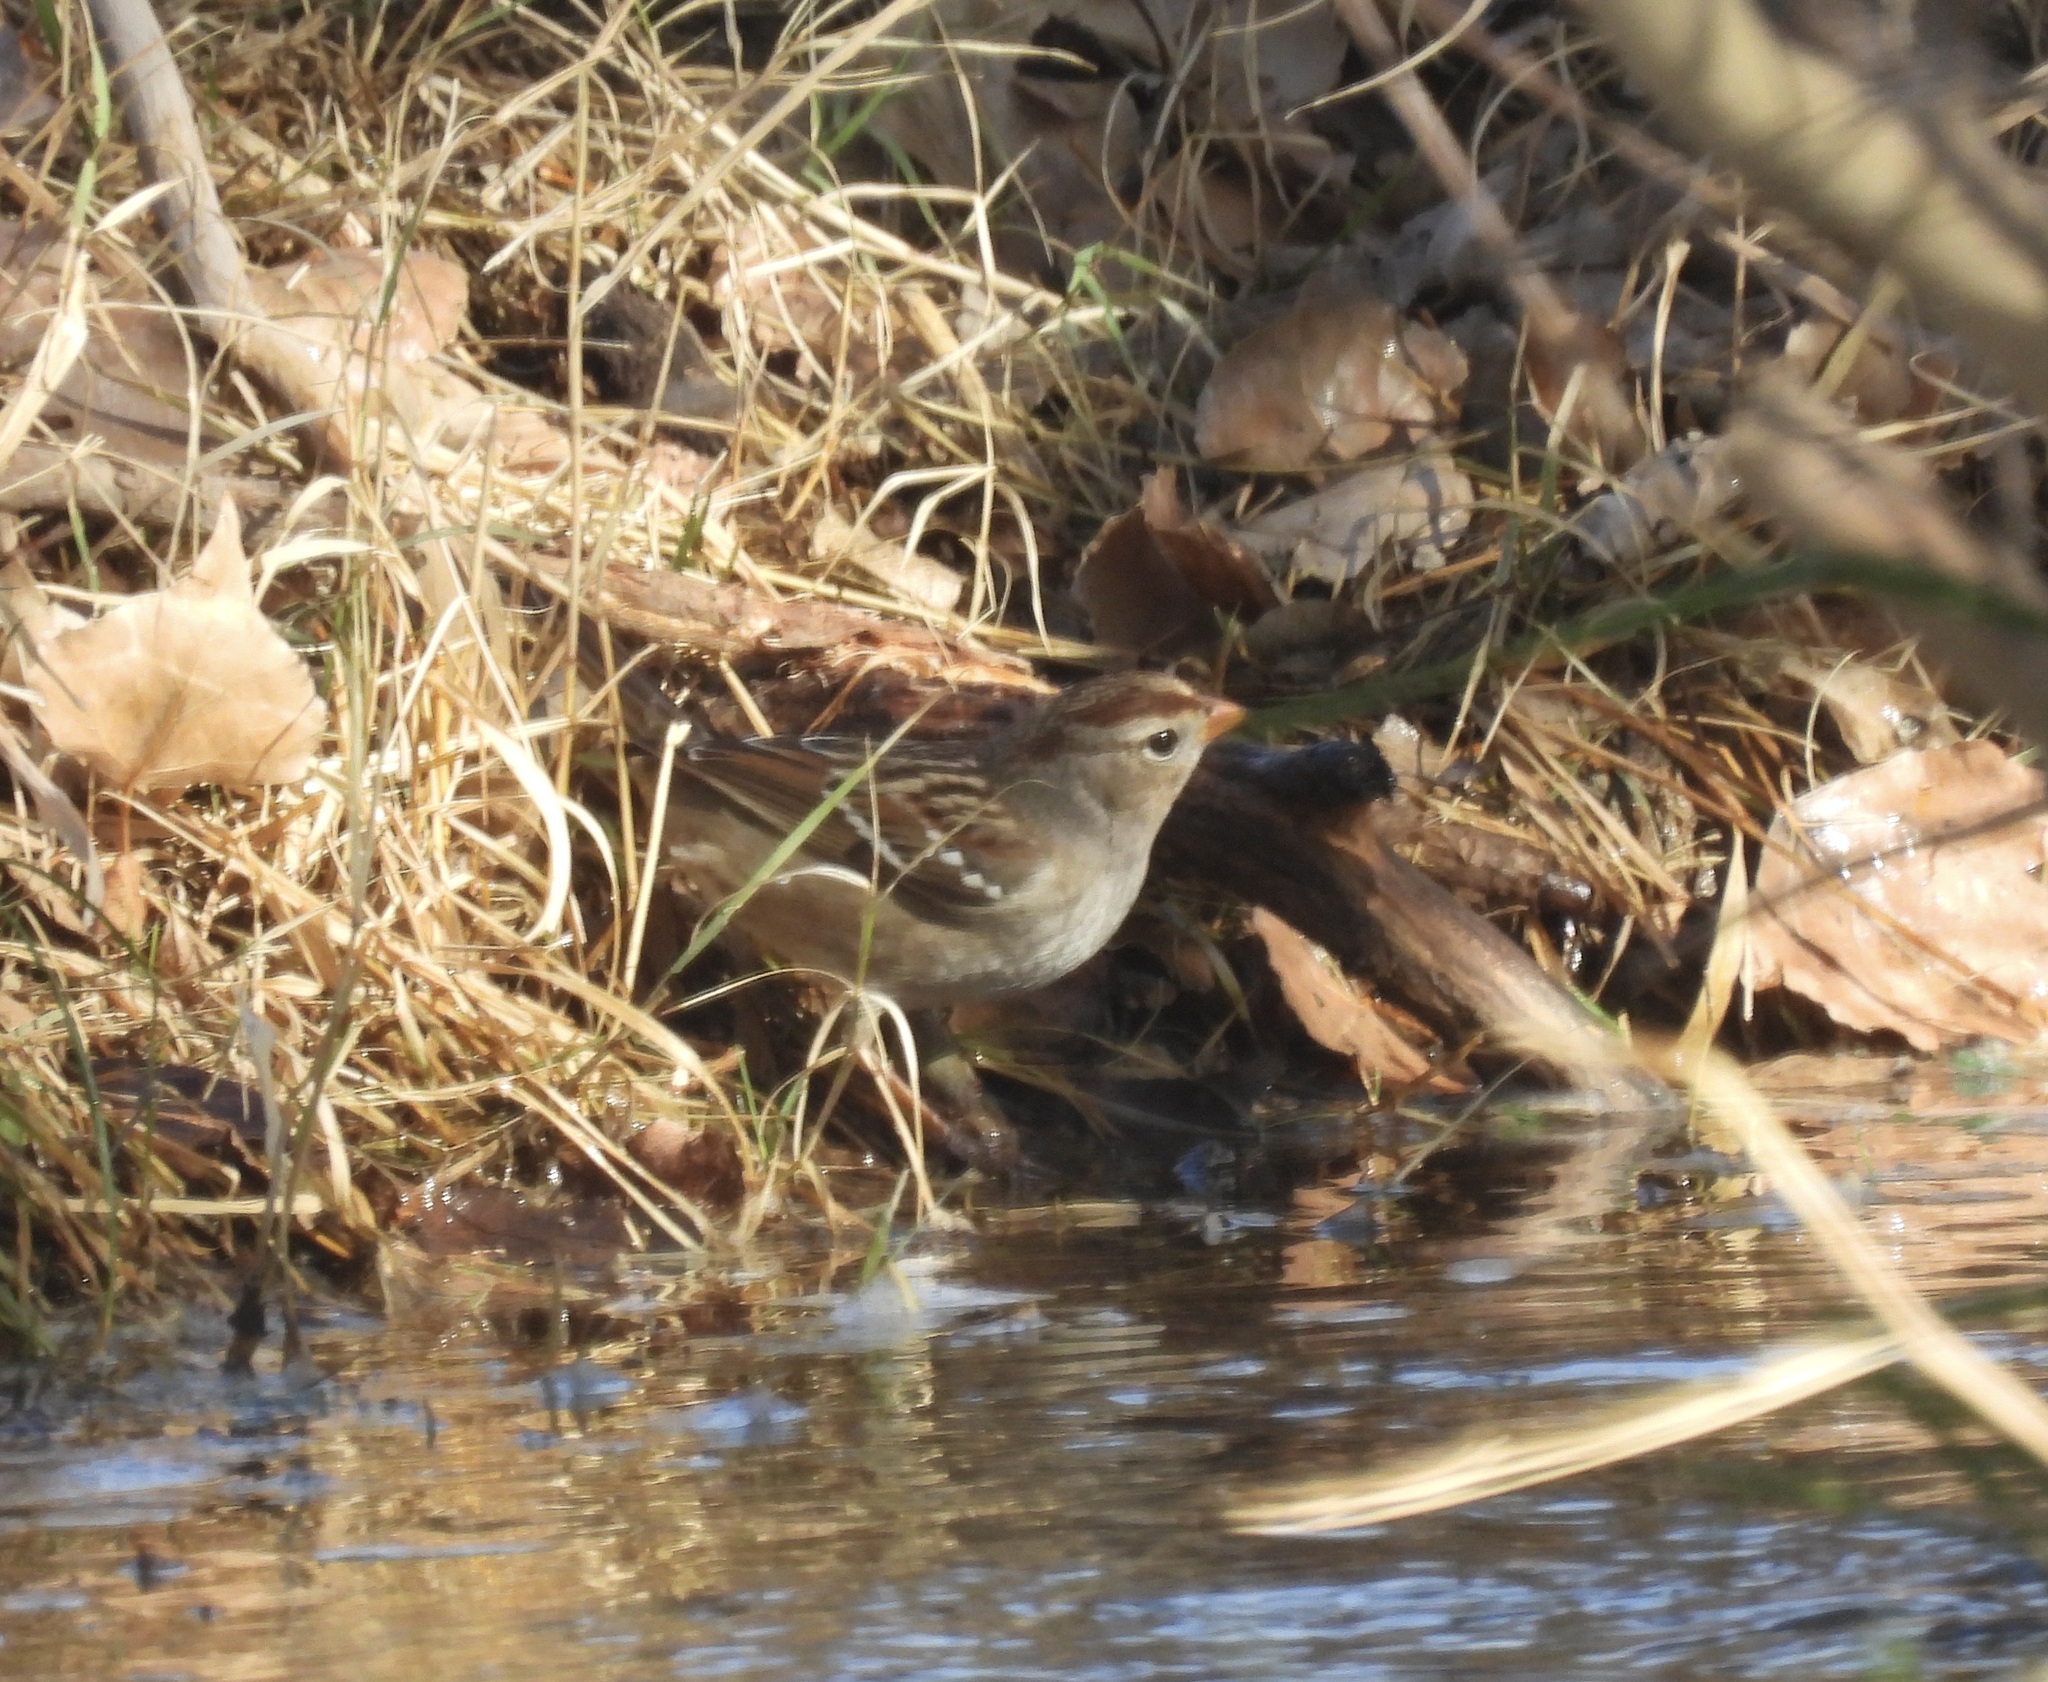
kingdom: Animalia
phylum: Chordata
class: Aves
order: Passeriformes
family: Passerellidae
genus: Zonotrichia
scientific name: Zonotrichia leucophrys
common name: White-crowned sparrow
